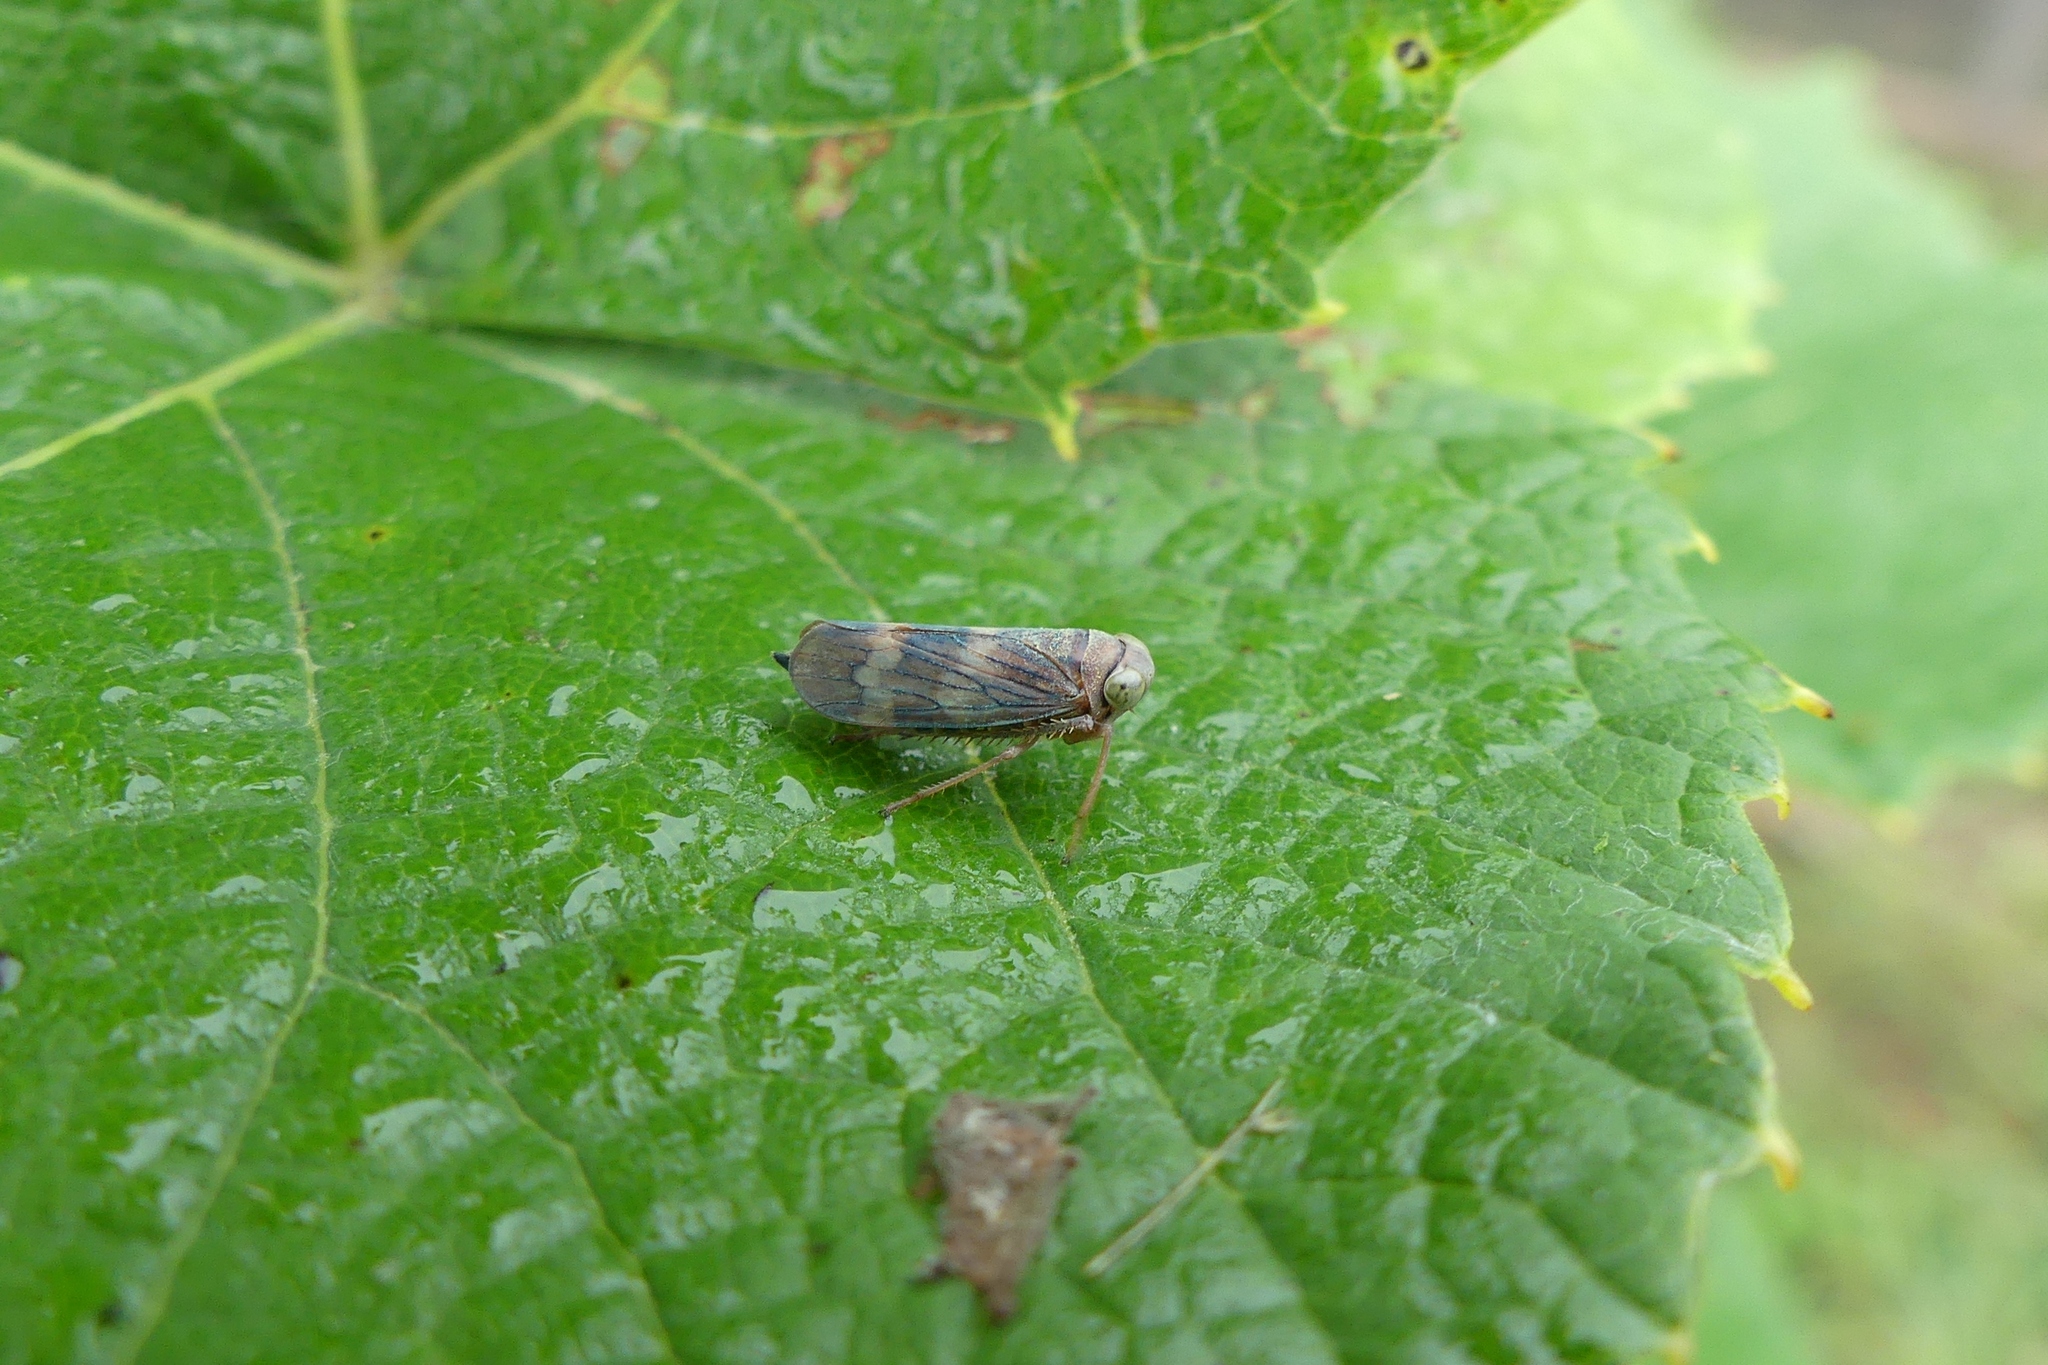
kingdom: Animalia
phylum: Arthropoda
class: Insecta
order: Hemiptera
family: Cicadellidae
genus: Jikradia
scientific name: Jikradia olitoria
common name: Coppery leafhopper
